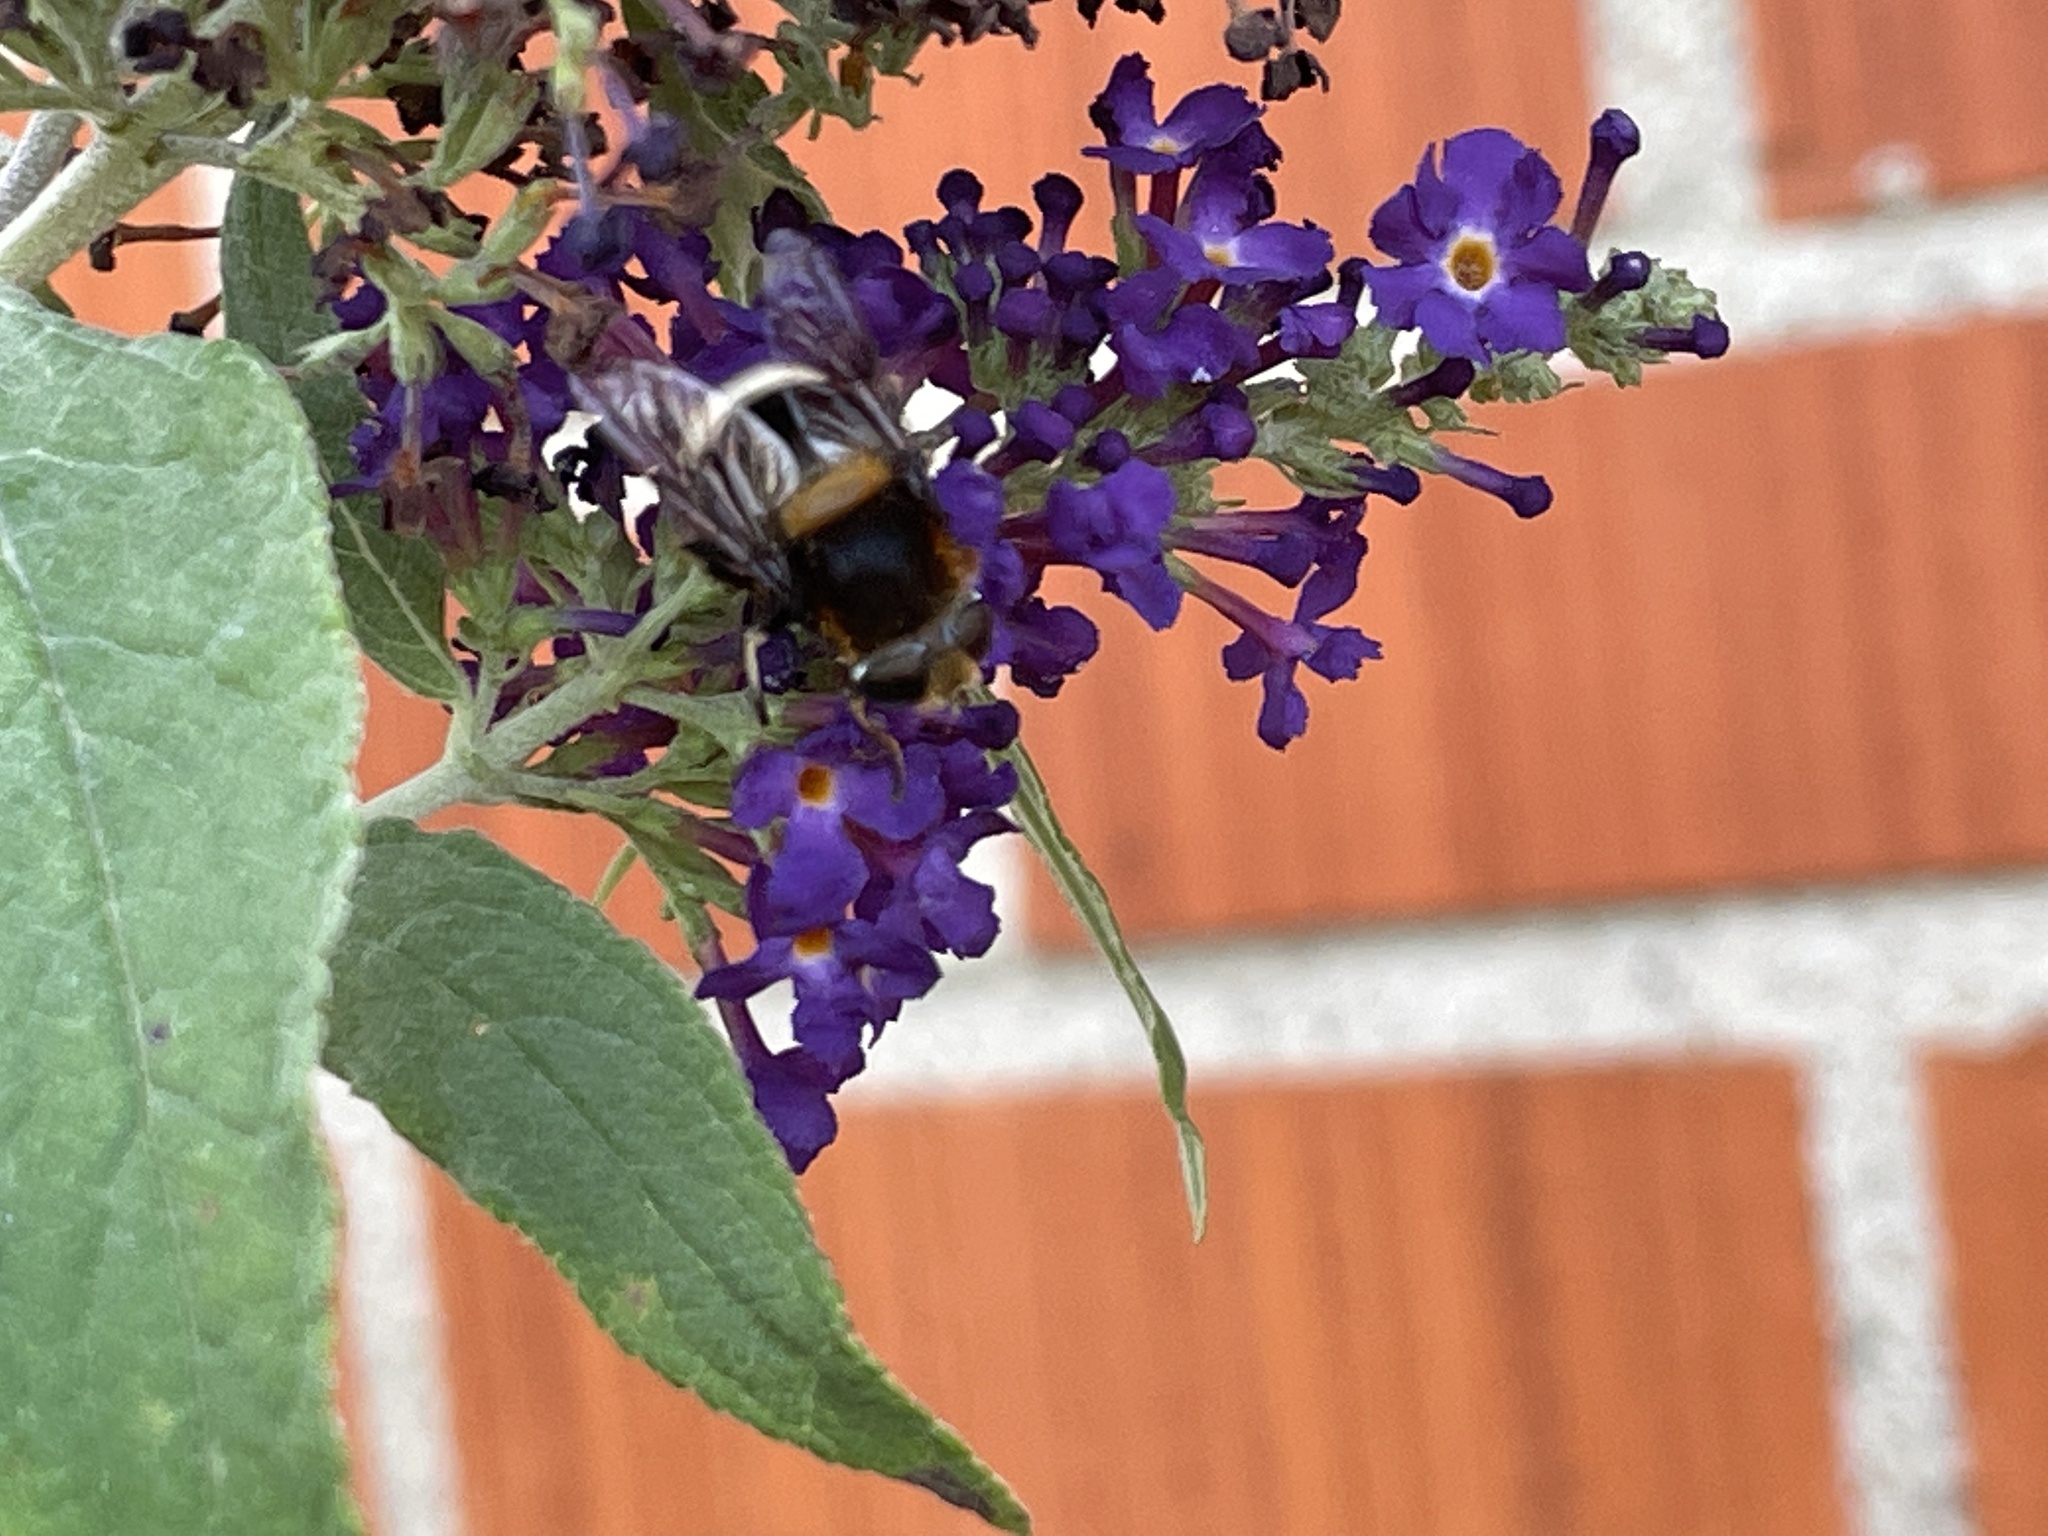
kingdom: Animalia
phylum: Arthropoda
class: Insecta
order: Diptera
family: Syrphidae
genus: Eristalis
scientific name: Eristalis intricaria
